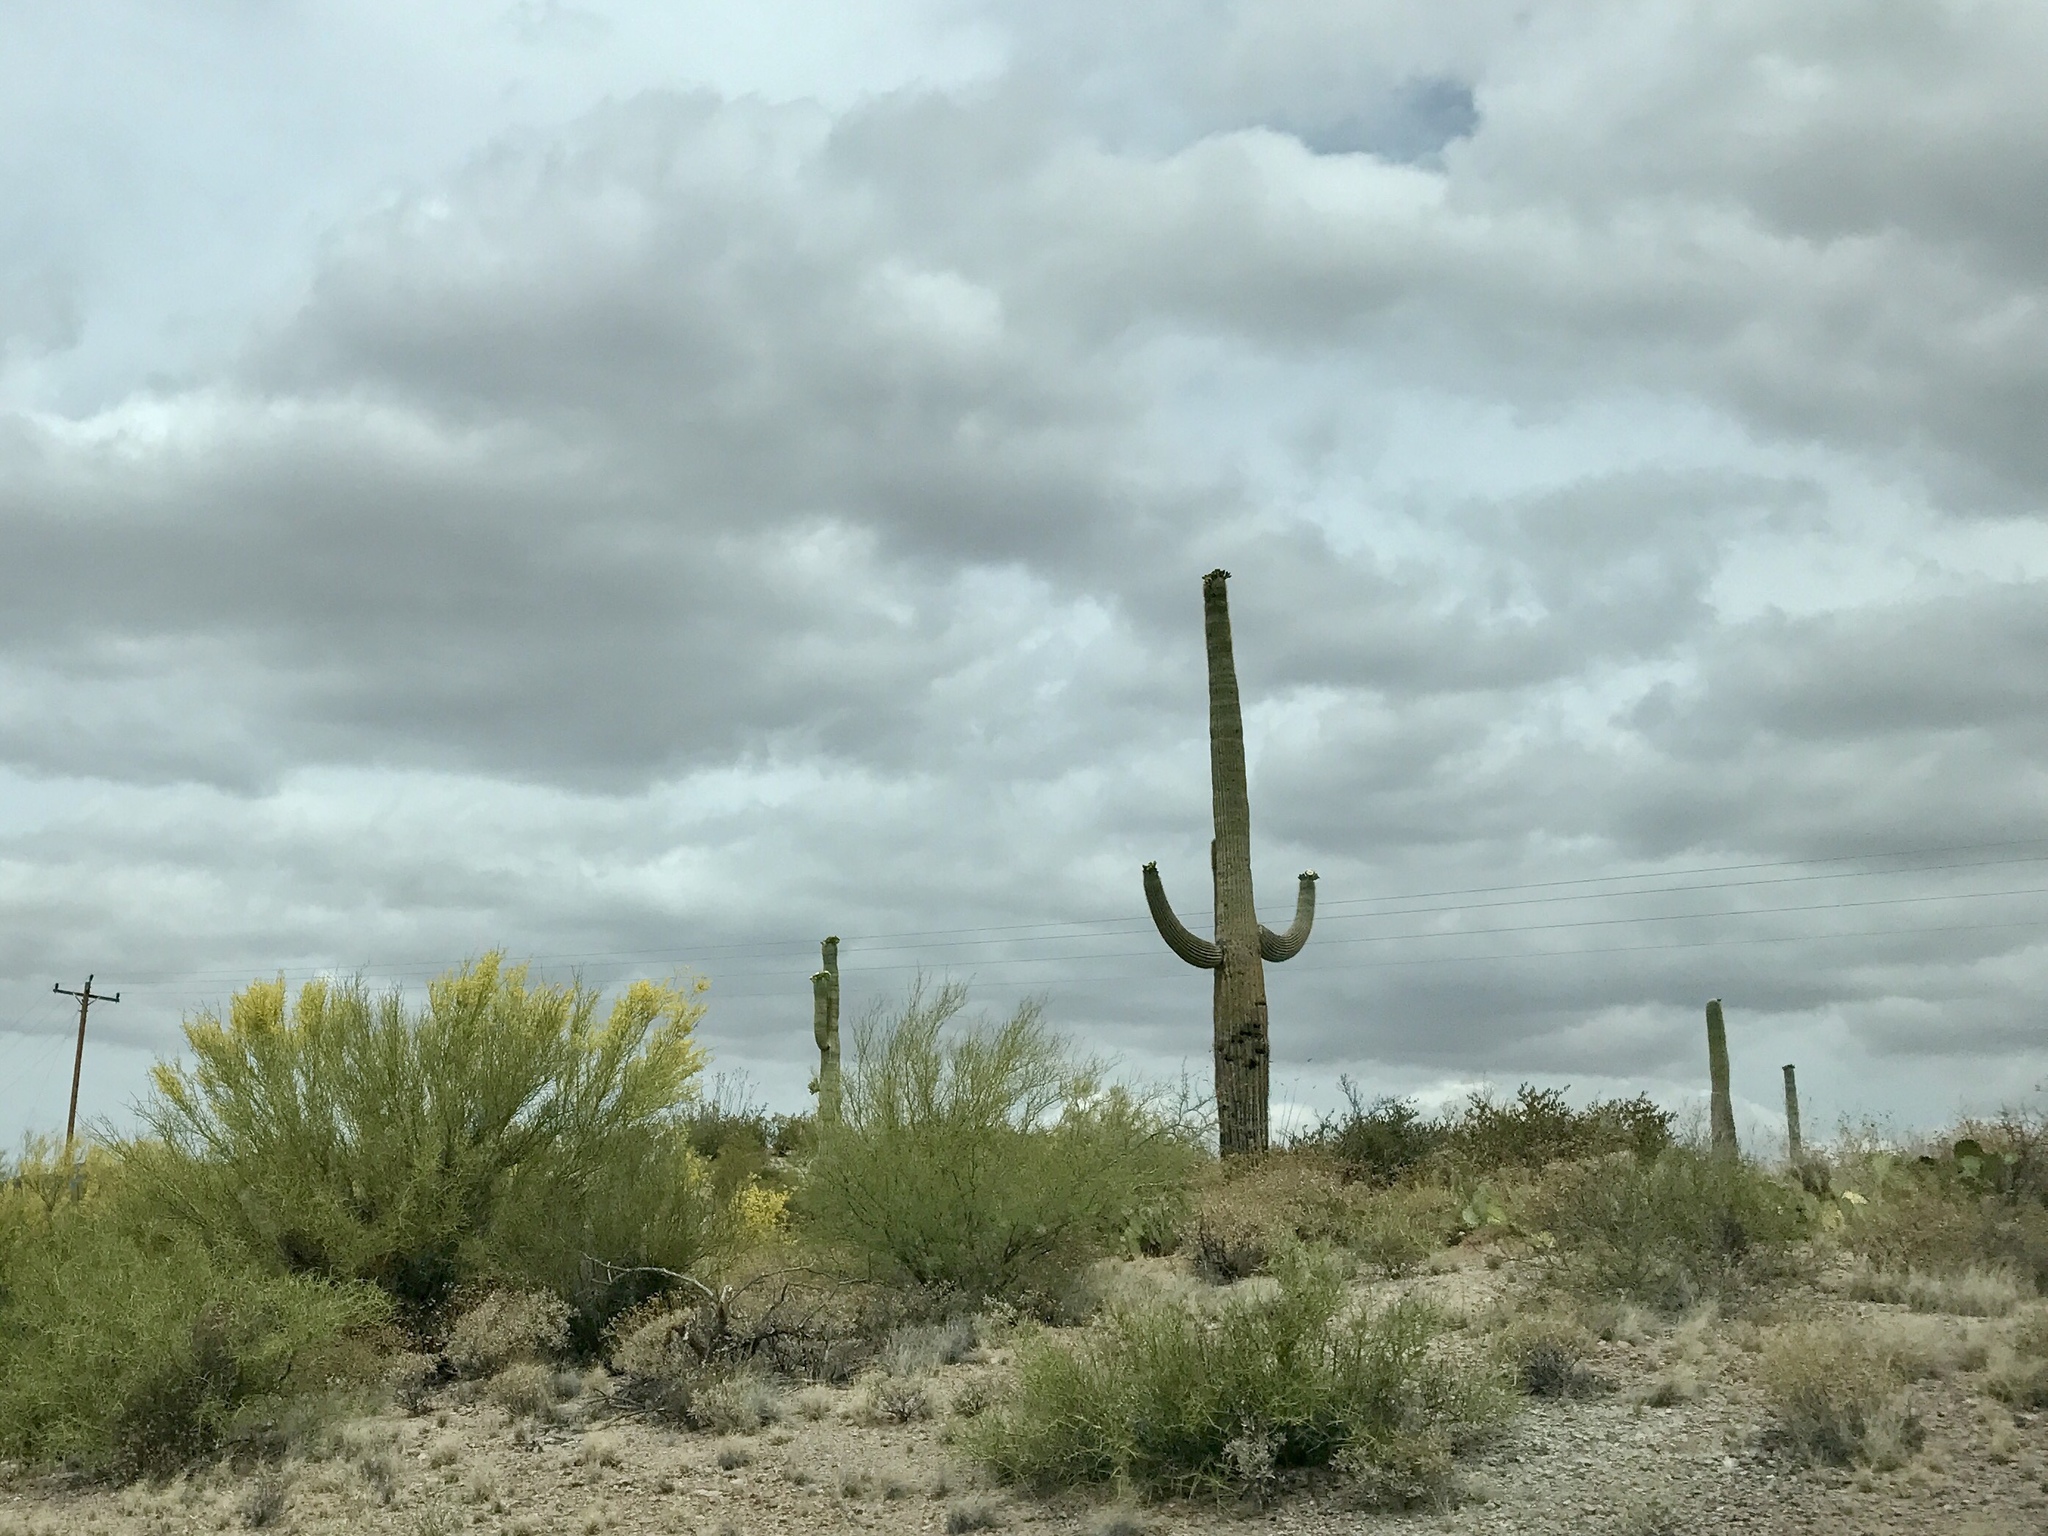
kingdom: Plantae
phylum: Tracheophyta
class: Magnoliopsida
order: Caryophyllales
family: Cactaceae
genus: Carnegiea
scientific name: Carnegiea gigantea
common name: Saguaro
